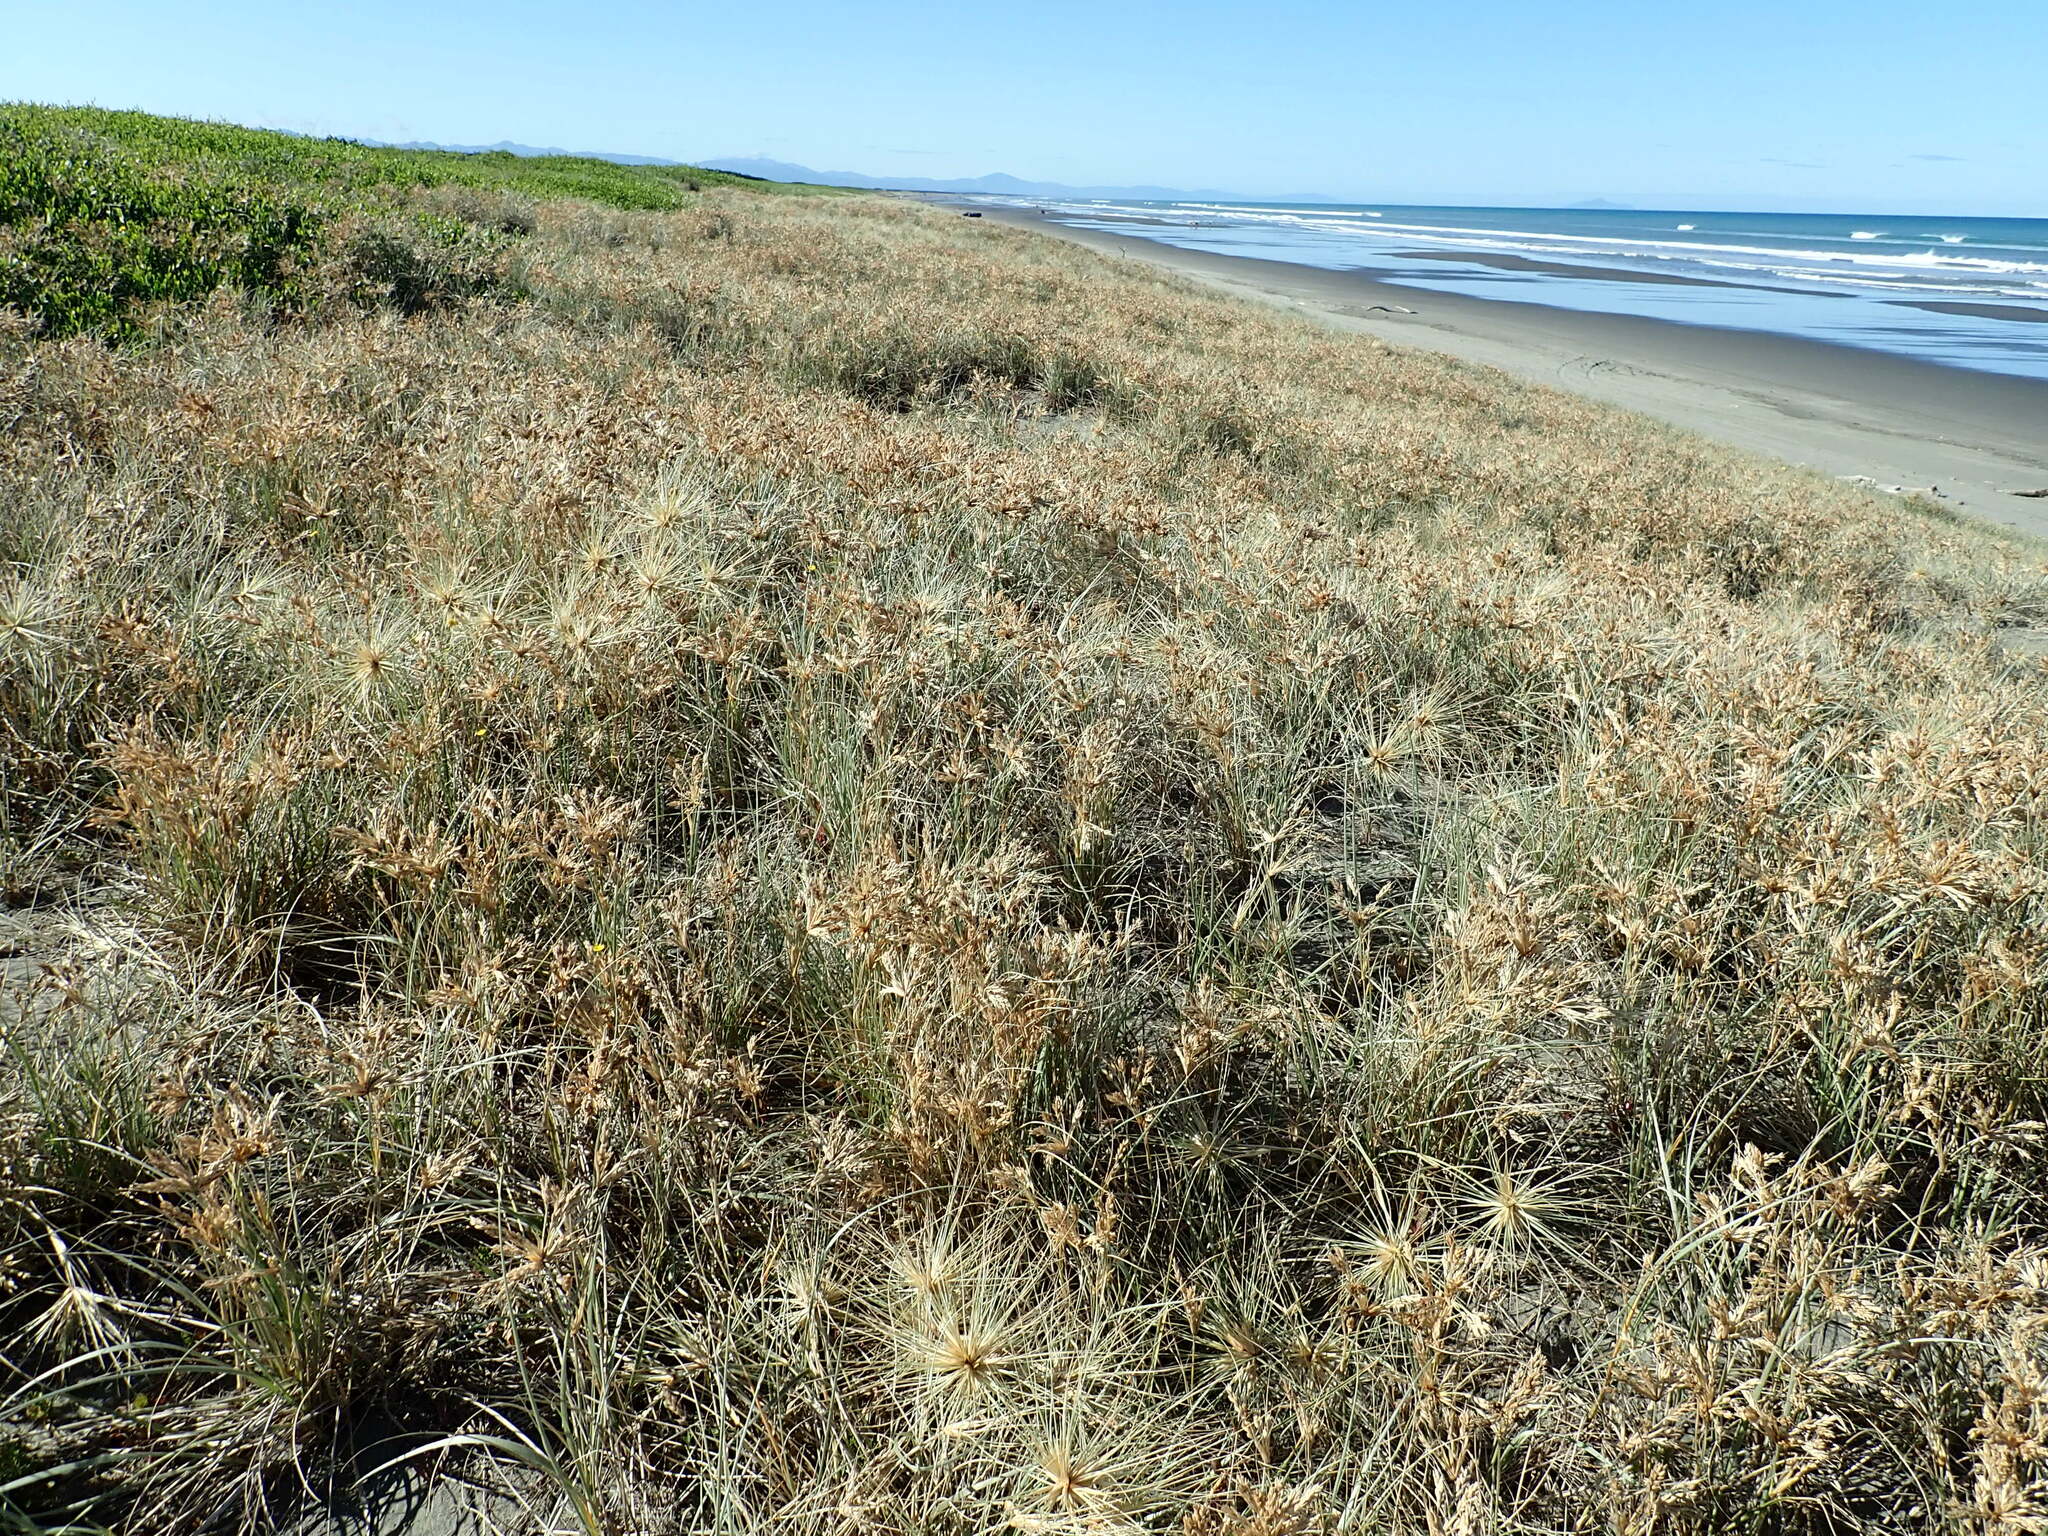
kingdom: Plantae
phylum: Tracheophyta
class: Liliopsida
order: Poales
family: Poaceae
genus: Spinifex
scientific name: Spinifex sericeus
